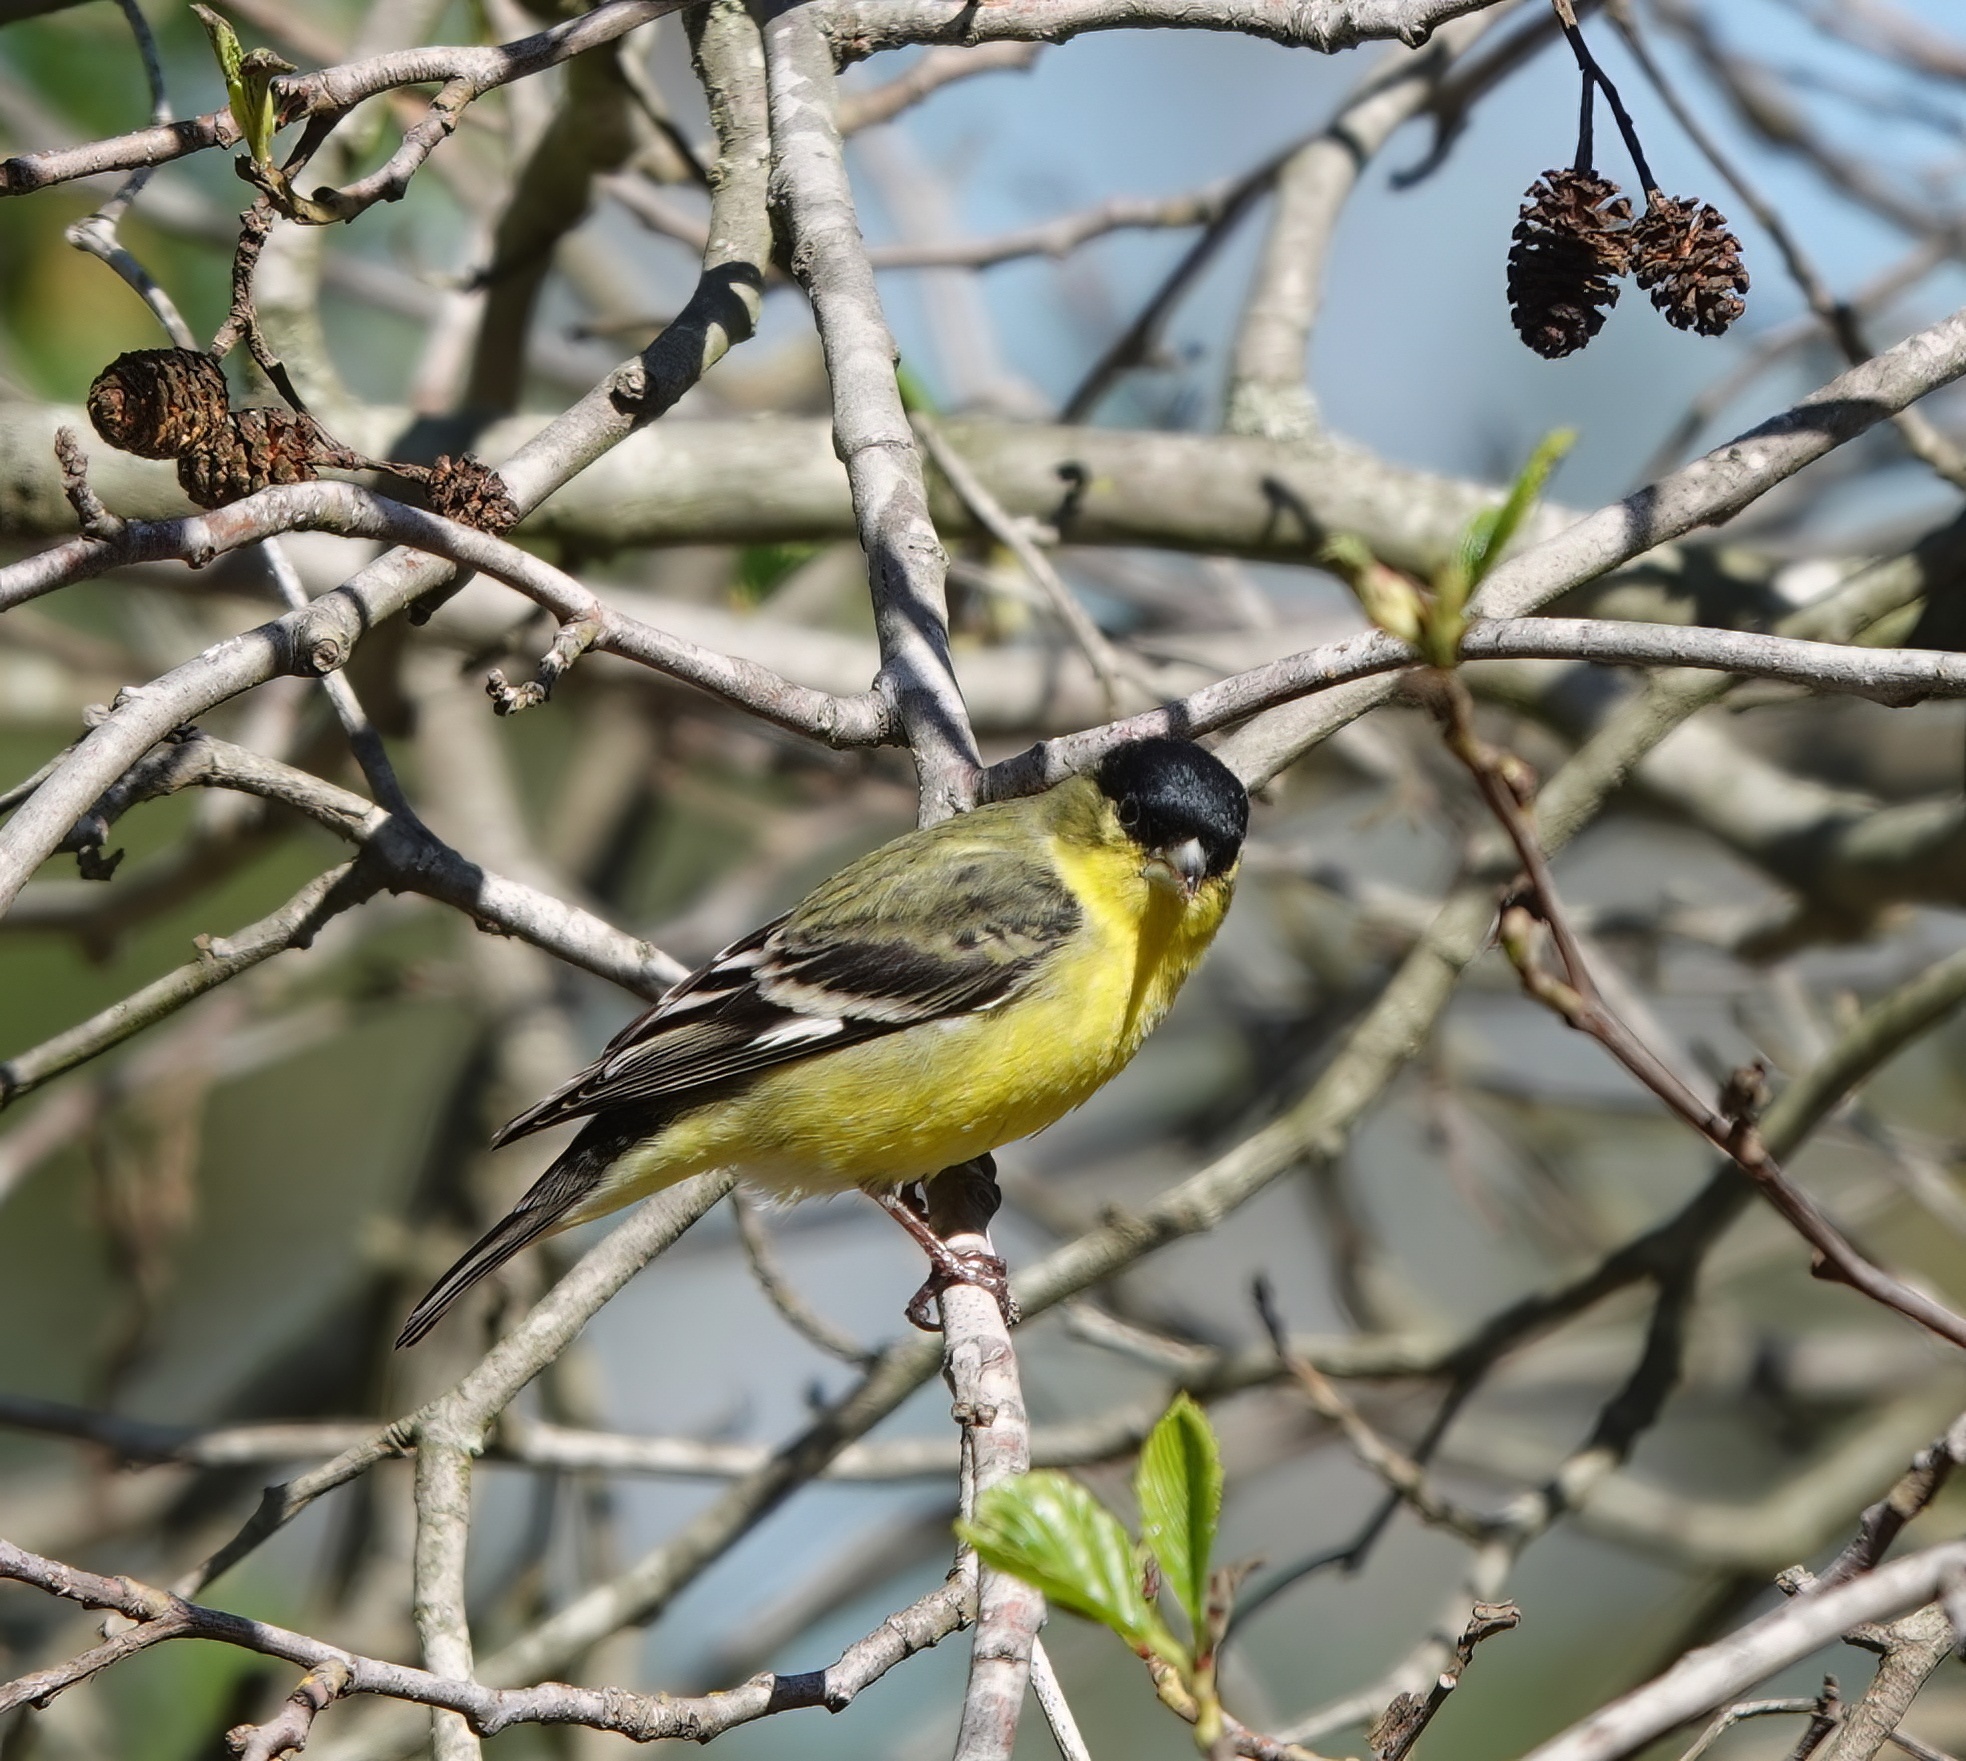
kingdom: Animalia
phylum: Chordata
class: Aves
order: Passeriformes
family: Fringillidae
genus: Spinus
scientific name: Spinus psaltria
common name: Lesser goldfinch
